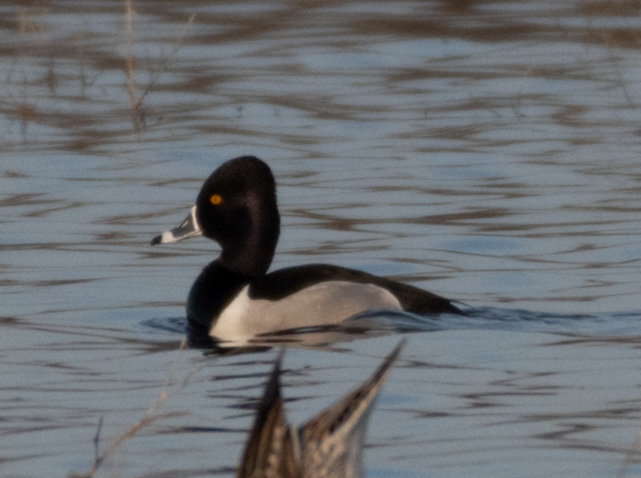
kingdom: Animalia
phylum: Chordata
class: Aves
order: Anseriformes
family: Anatidae
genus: Aythya
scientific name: Aythya collaris
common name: Ring-necked duck
